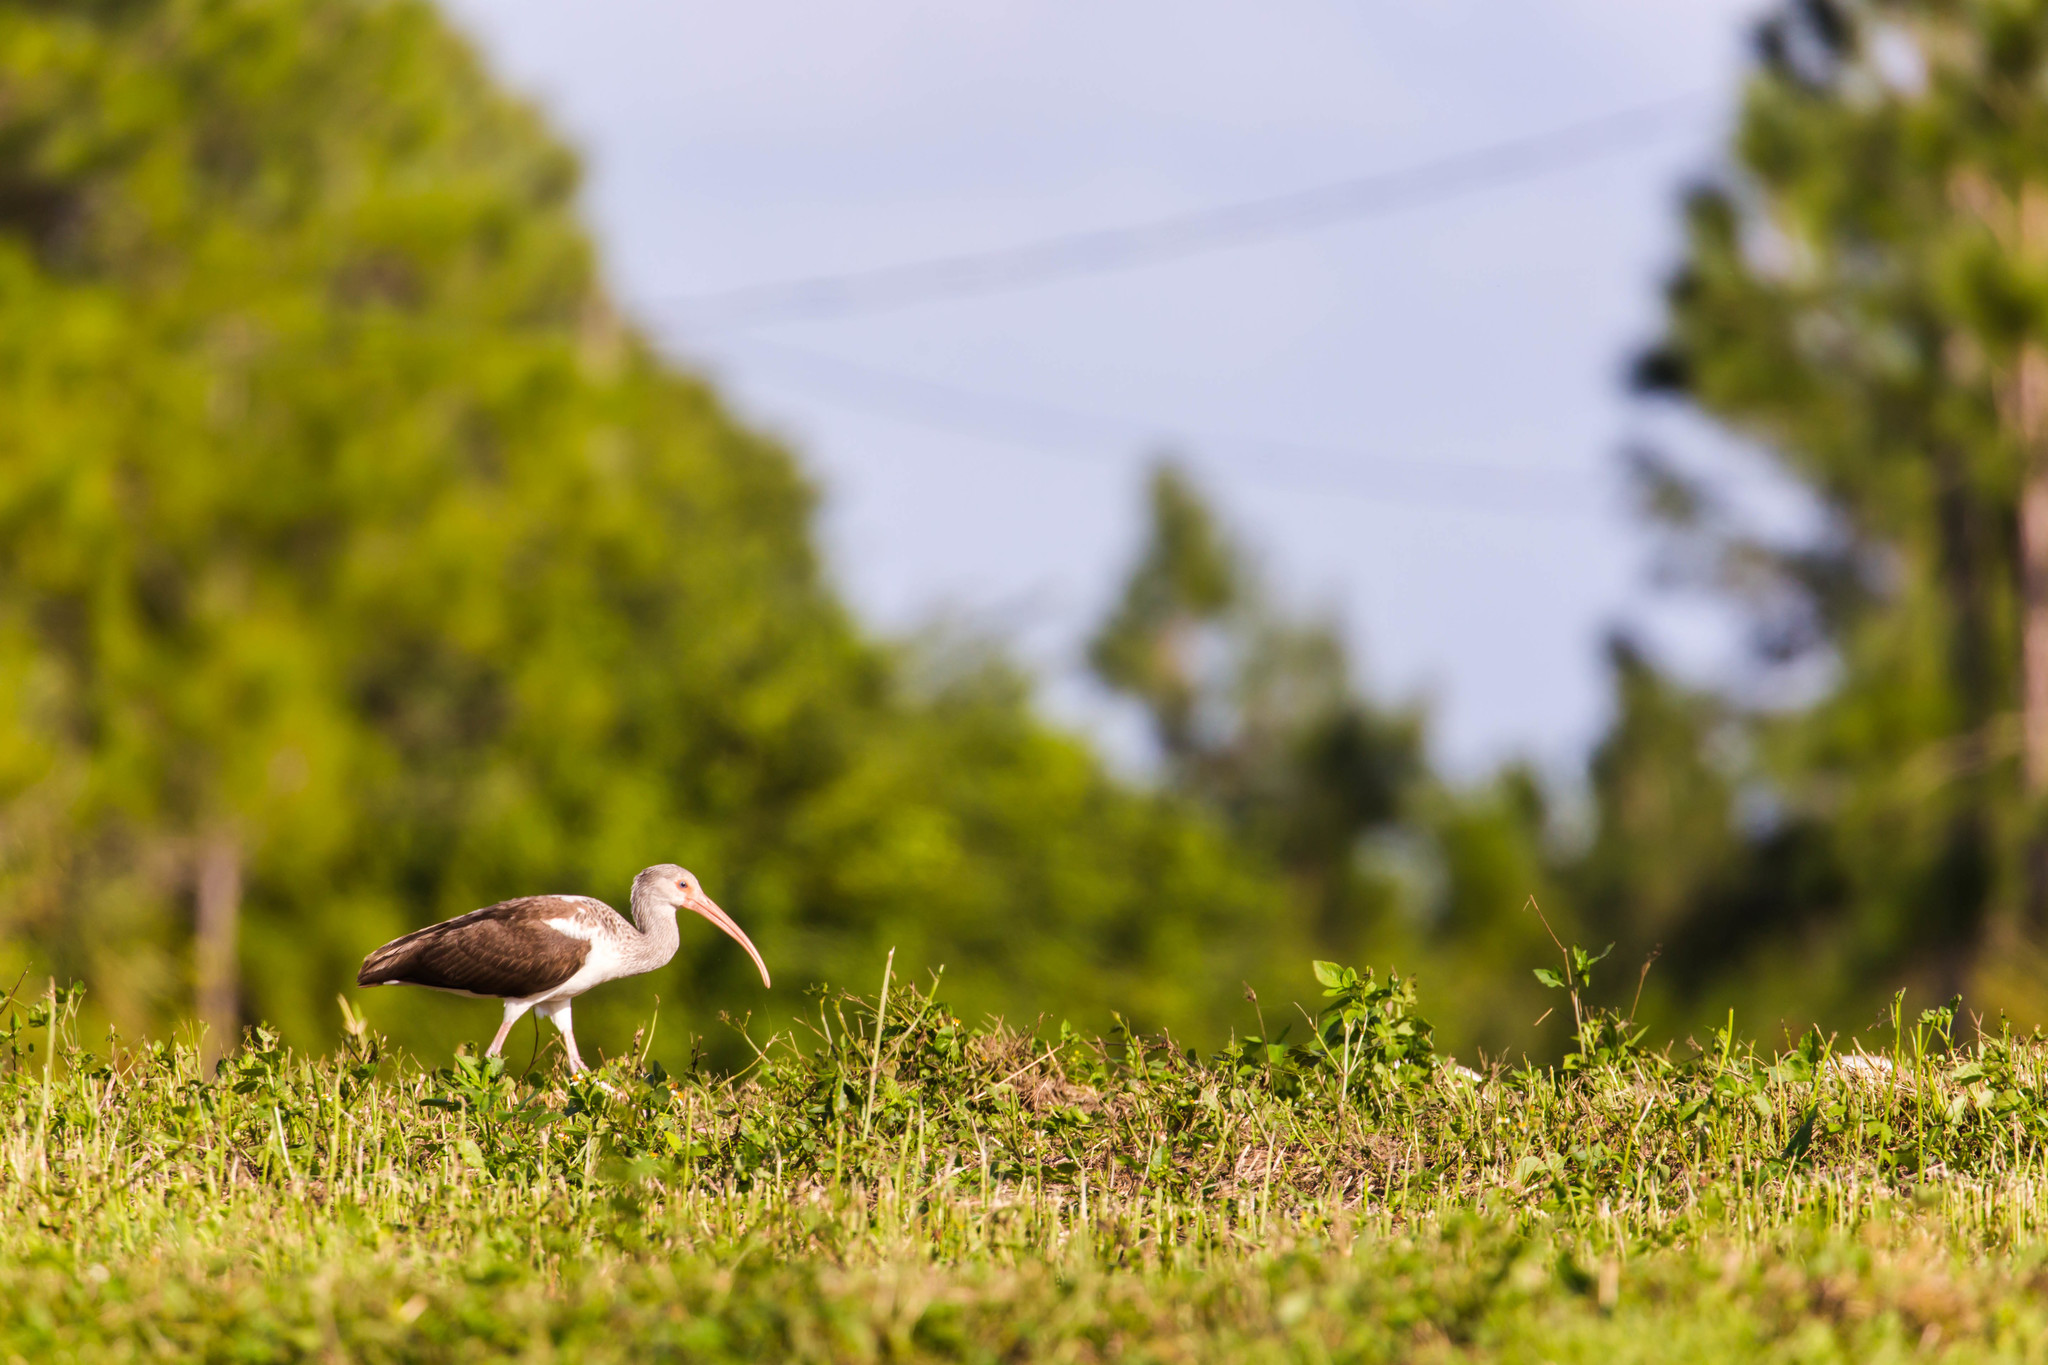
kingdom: Animalia
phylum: Chordata
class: Aves
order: Pelecaniformes
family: Threskiornithidae
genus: Eudocimus
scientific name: Eudocimus albus
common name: White ibis
